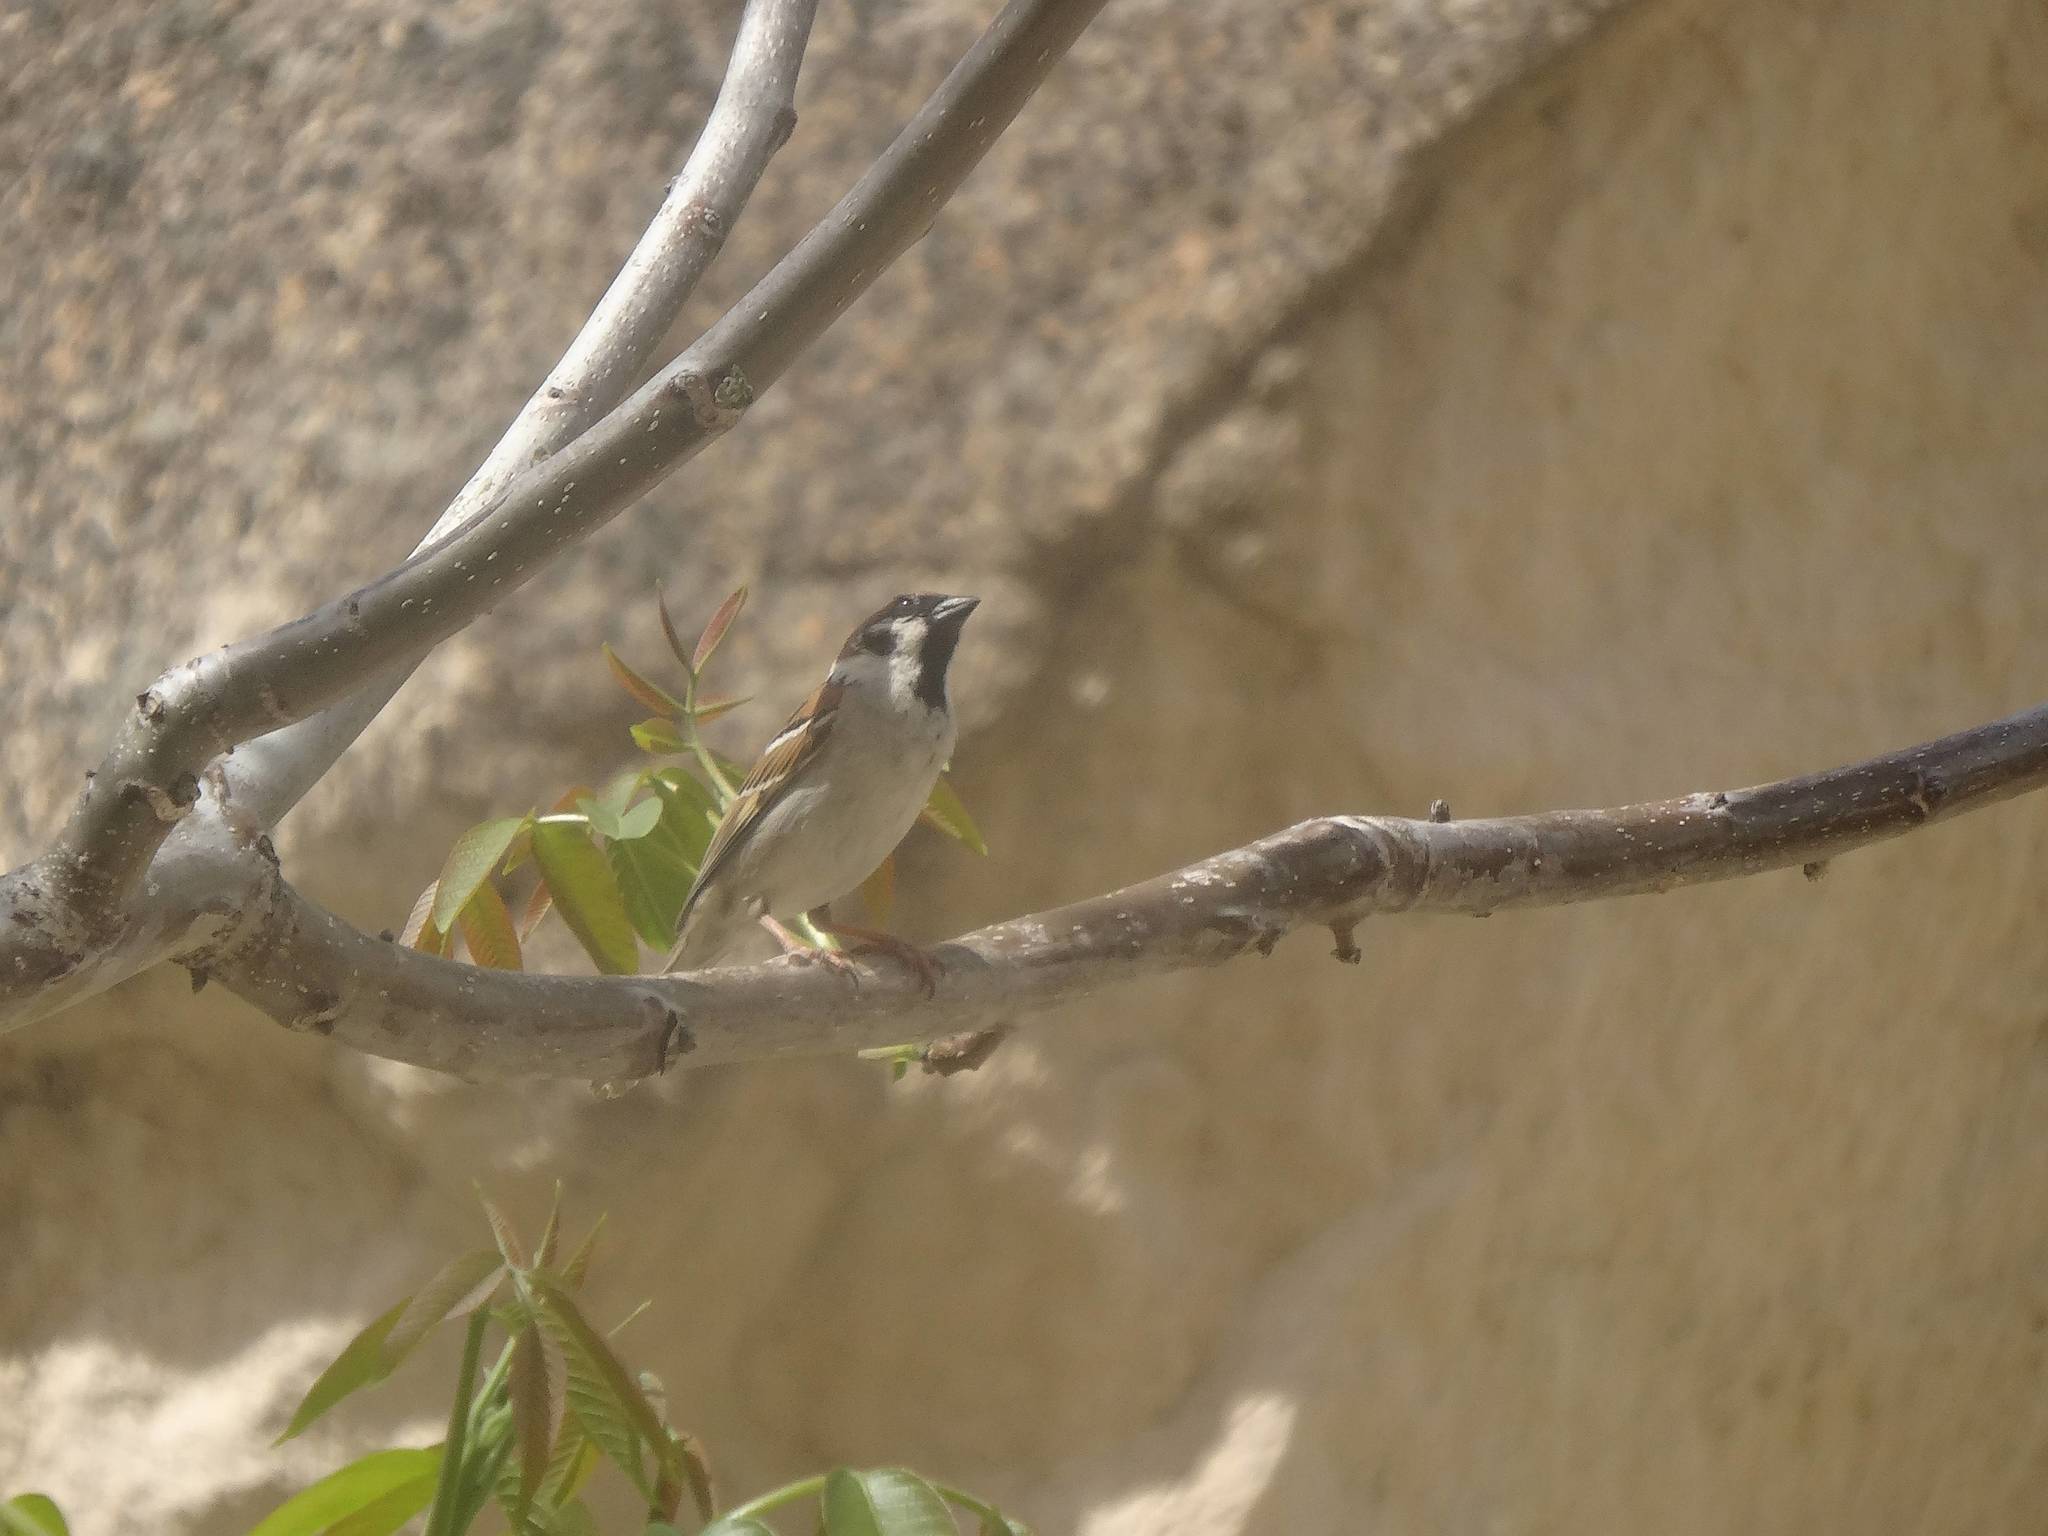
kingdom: Animalia
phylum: Chordata
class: Aves
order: Passeriformes
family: Passeridae
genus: Passer
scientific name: Passer montanus
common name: Eurasian tree sparrow
